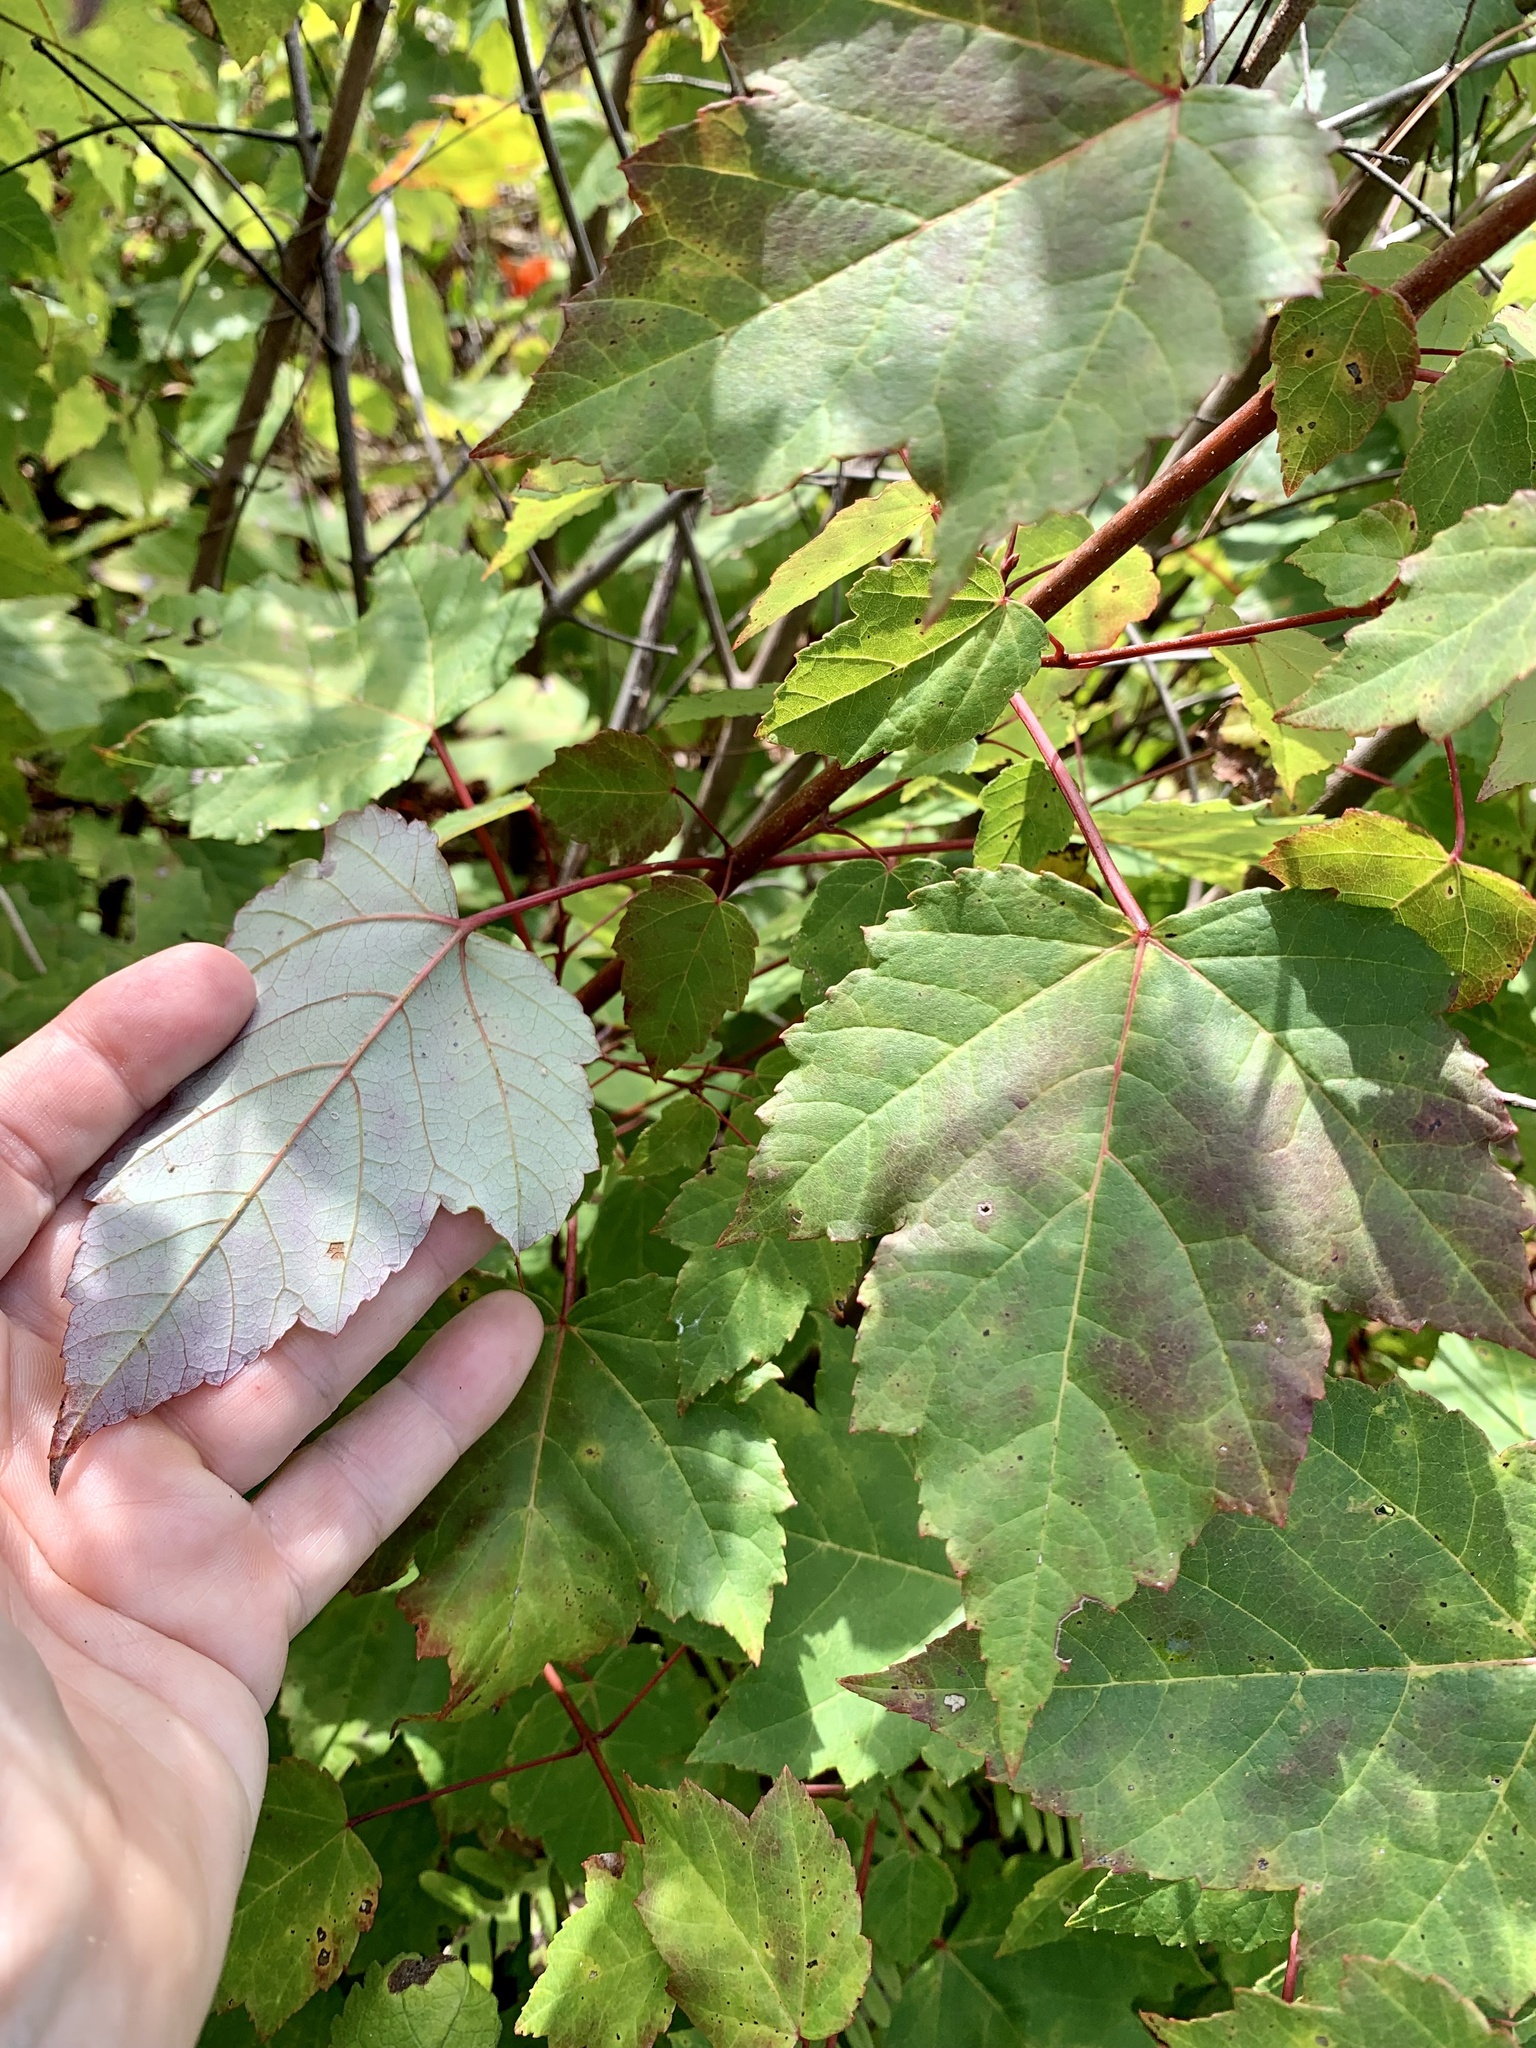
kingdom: Plantae
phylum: Tracheophyta
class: Magnoliopsida
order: Sapindales
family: Sapindaceae
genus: Acer
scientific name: Acer rubrum
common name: Red maple
